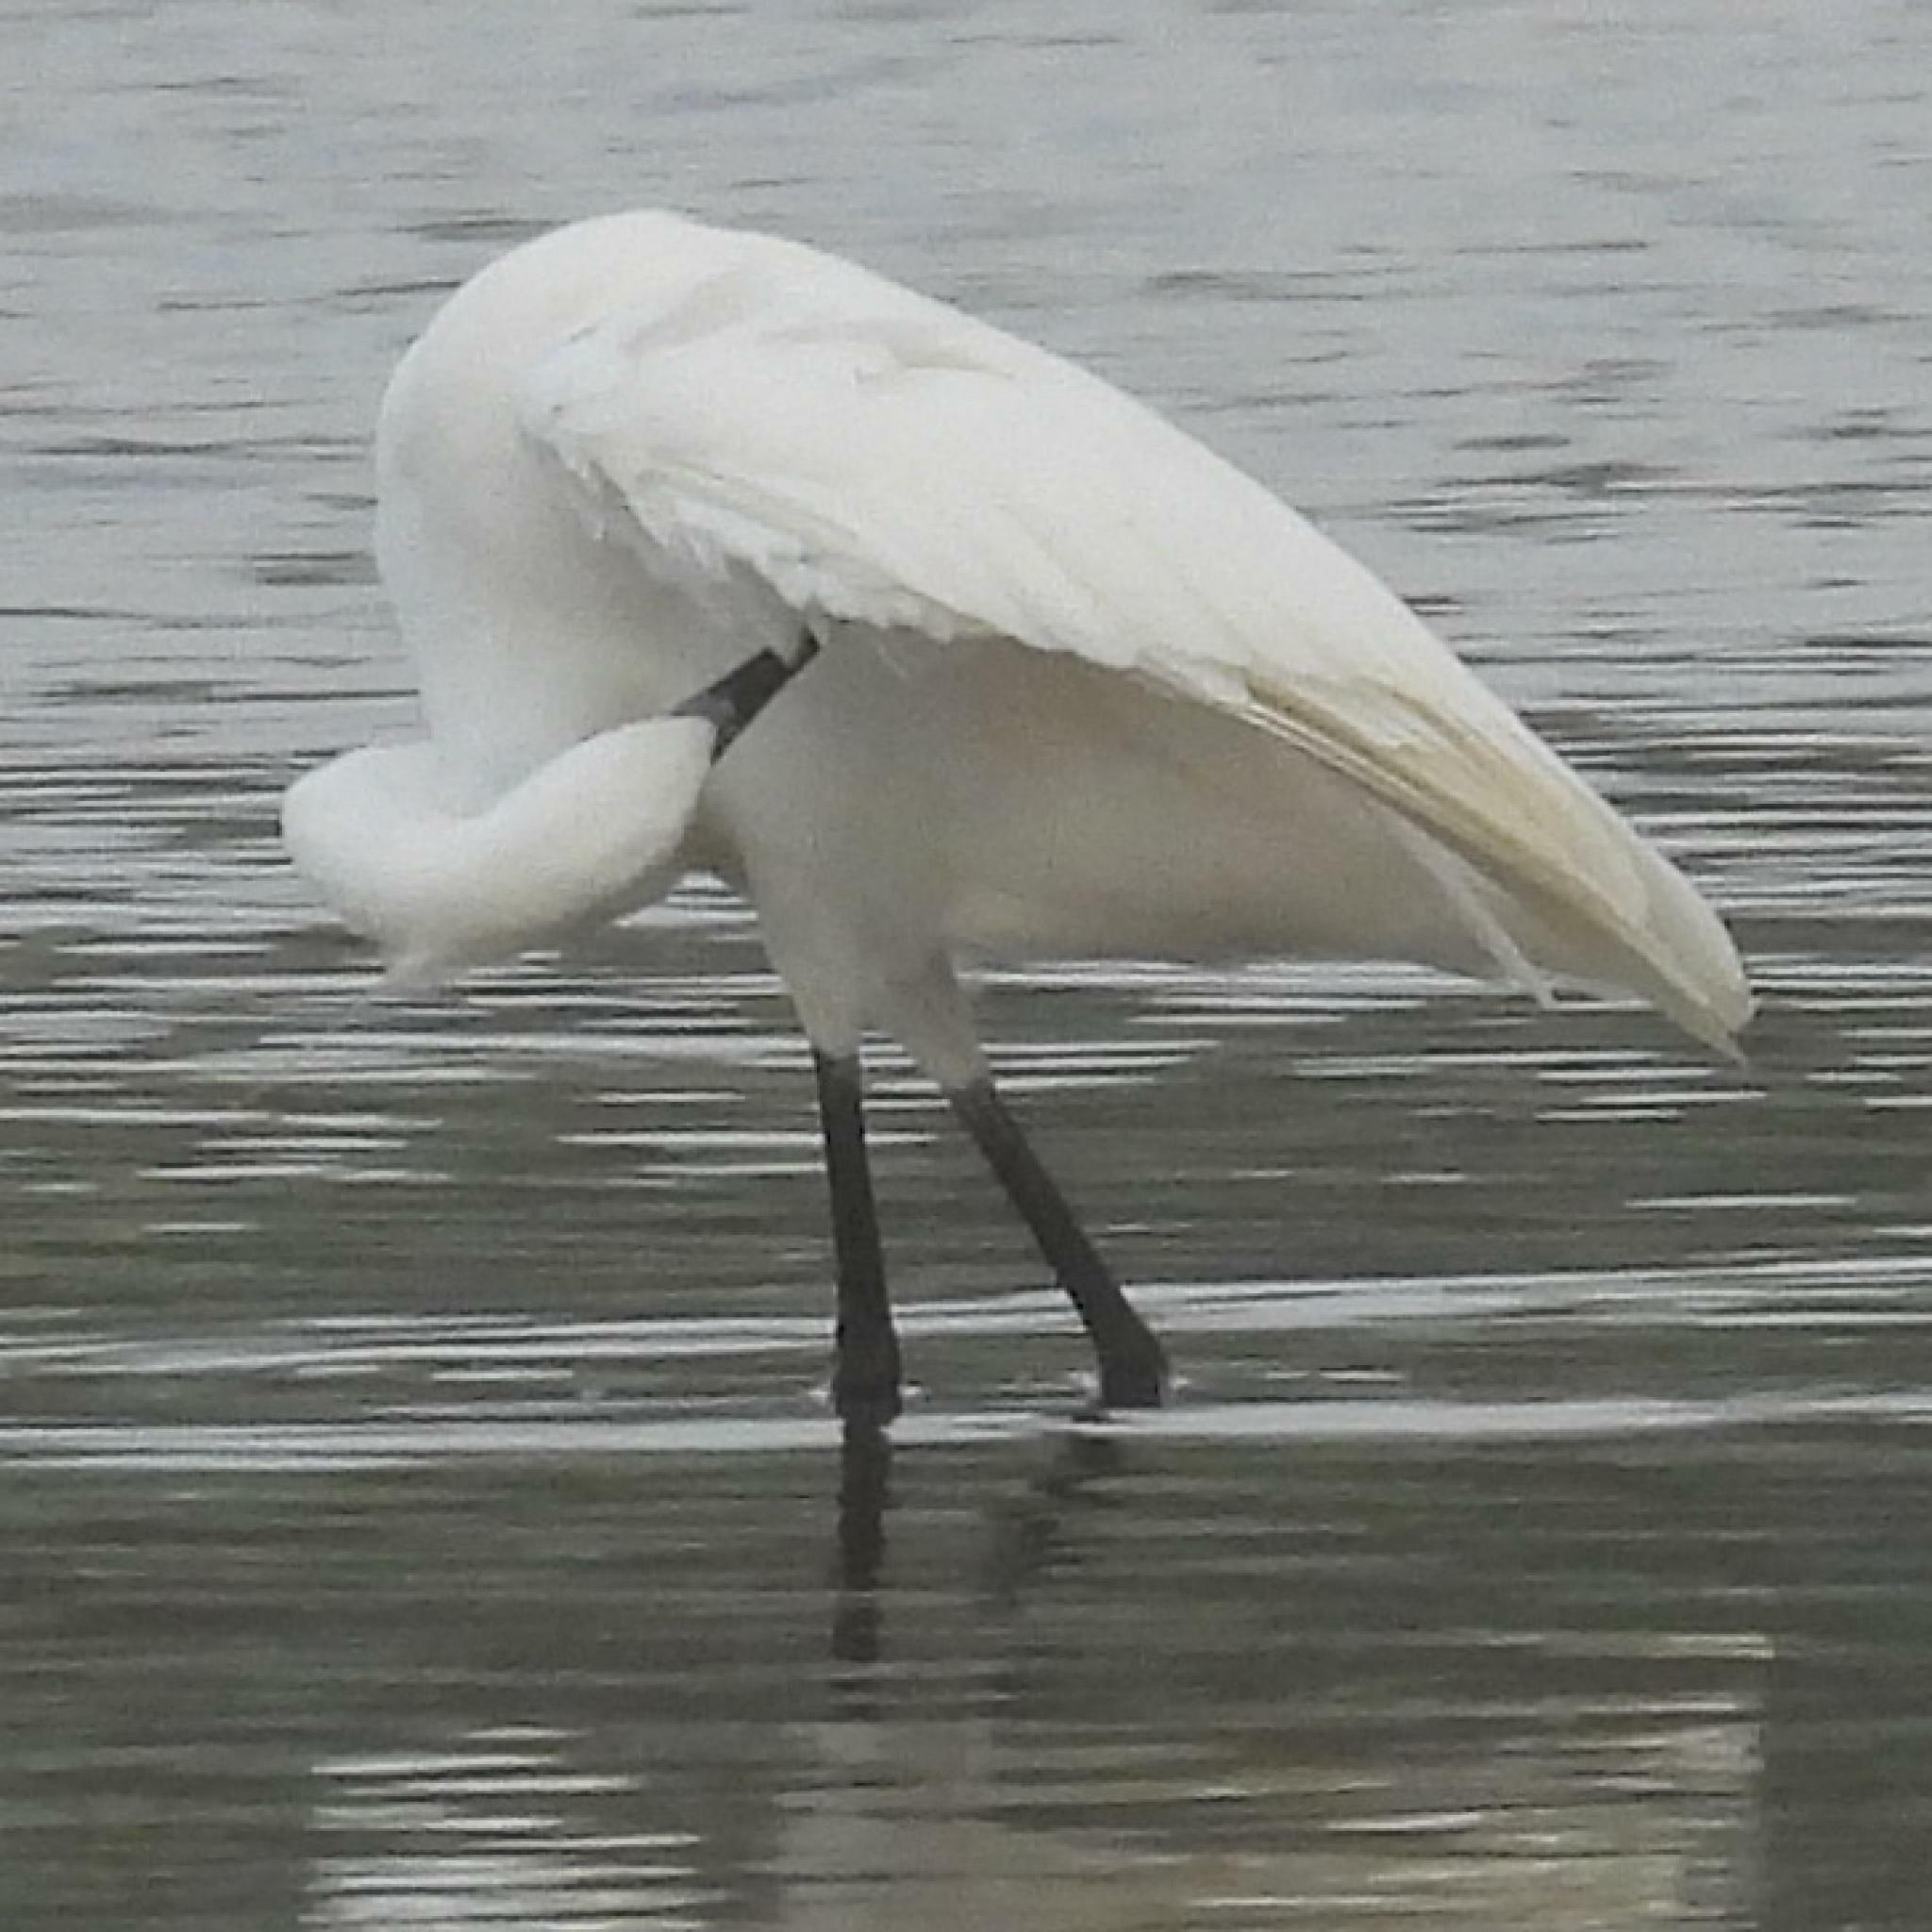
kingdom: Animalia
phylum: Chordata
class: Aves
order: Pelecaniformes
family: Ardeidae
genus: Egretta
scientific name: Egretta garzetta
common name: Little egret
